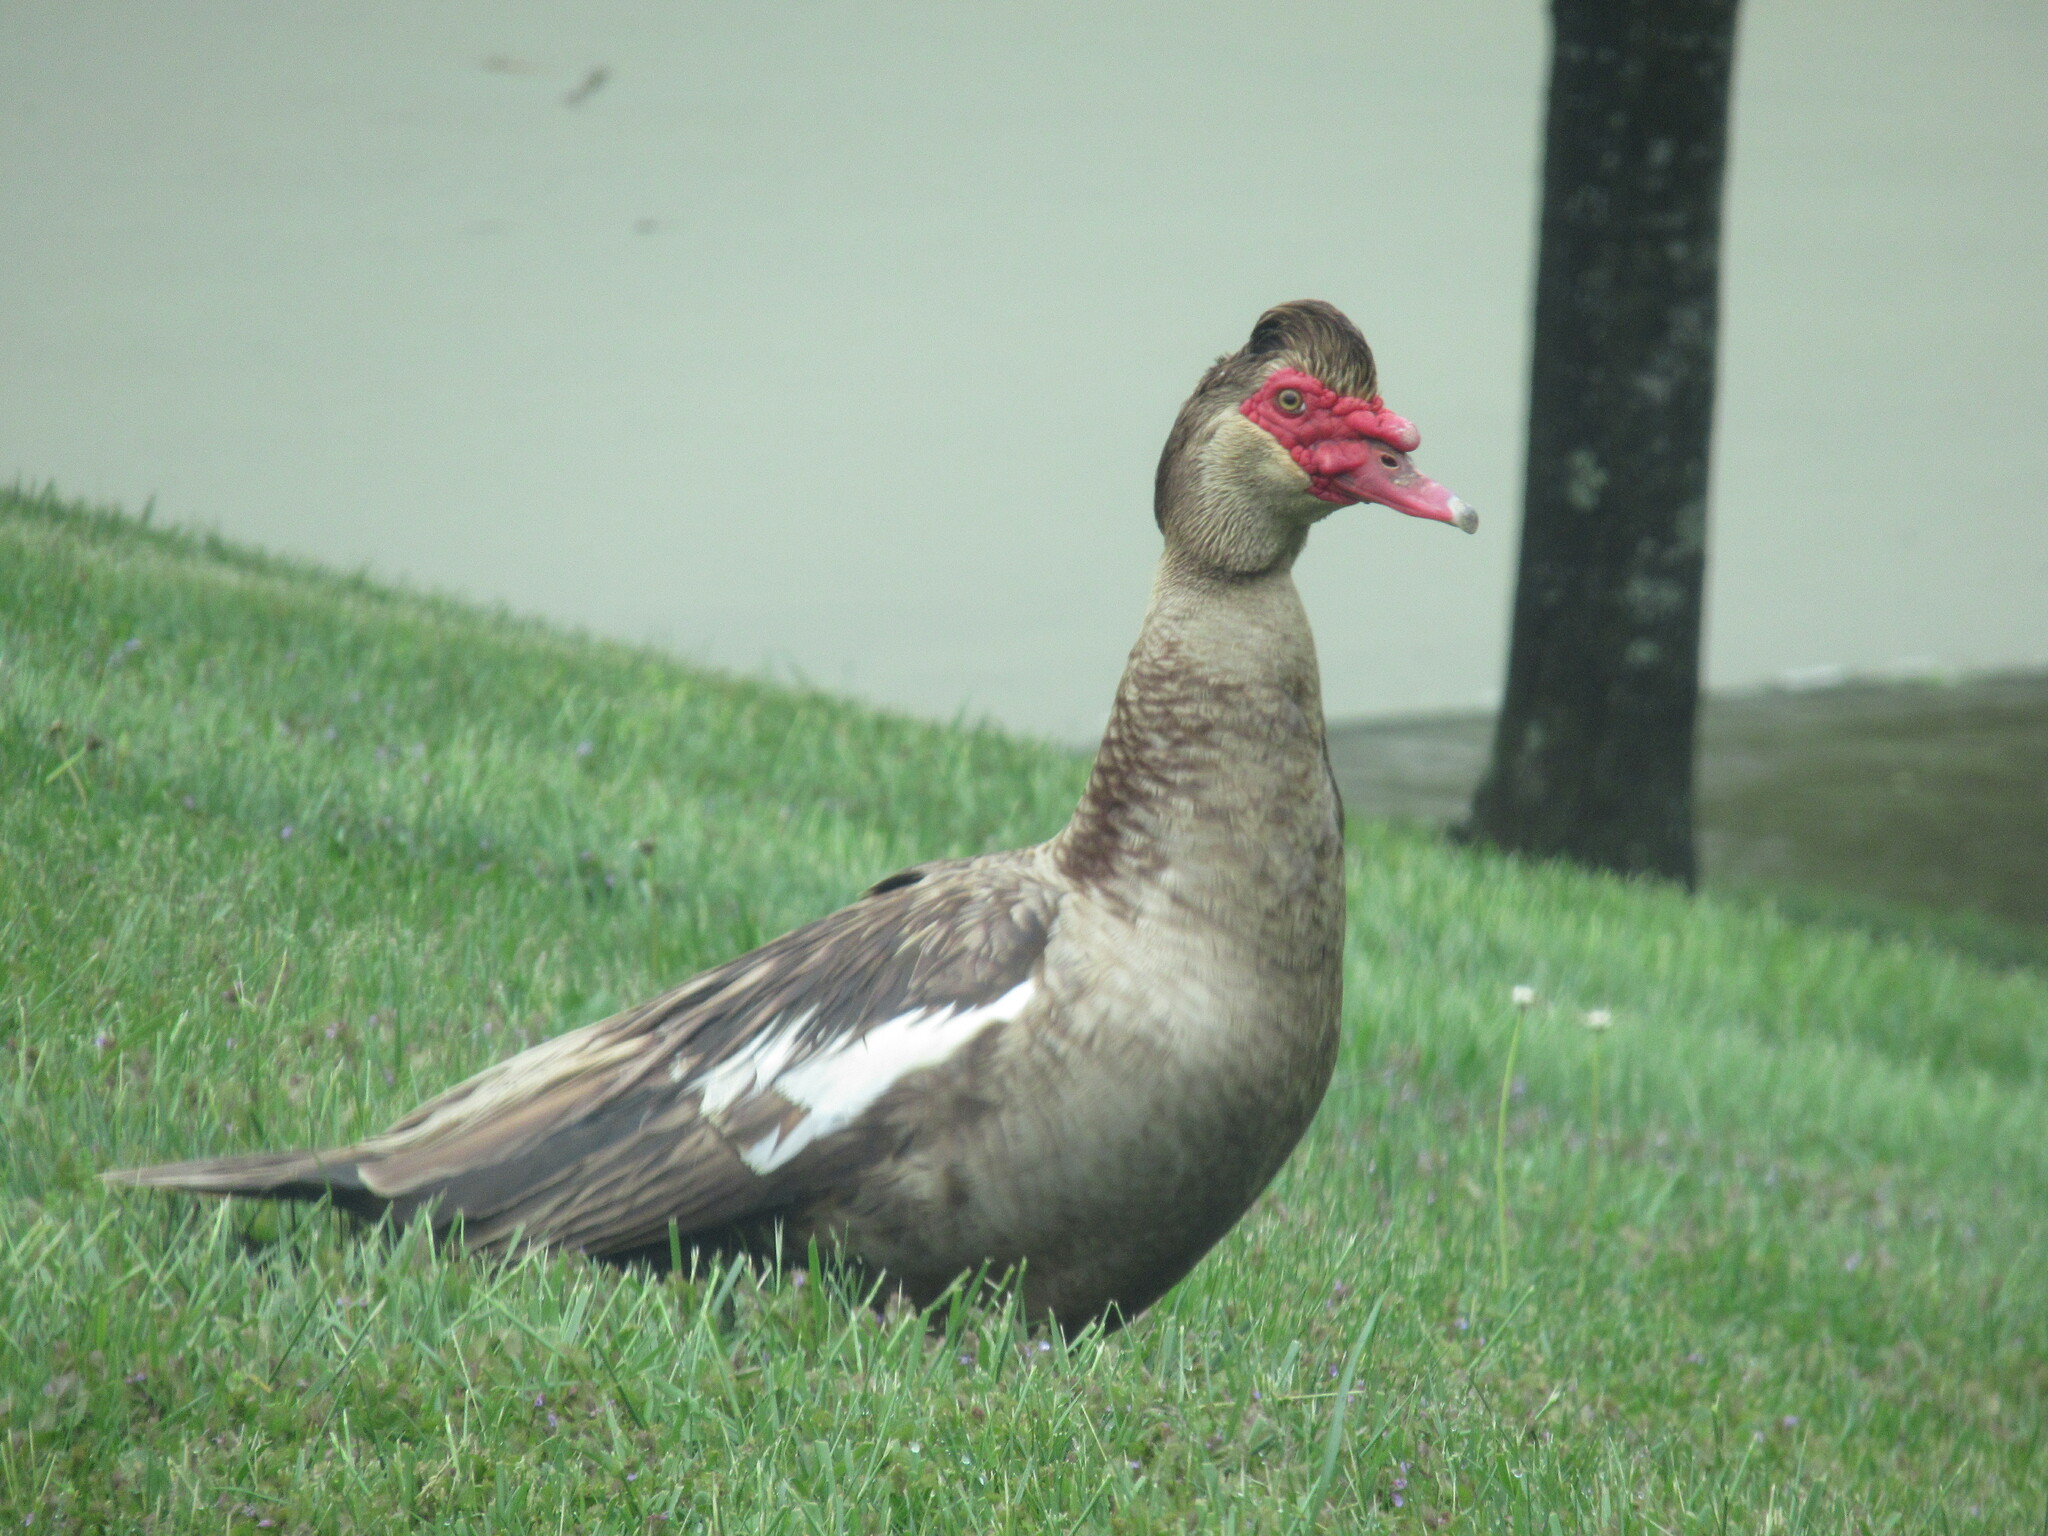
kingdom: Animalia
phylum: Chordata
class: Aves
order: Anseriformes
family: Anatidae
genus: Cairina
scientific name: Cairina moschata
